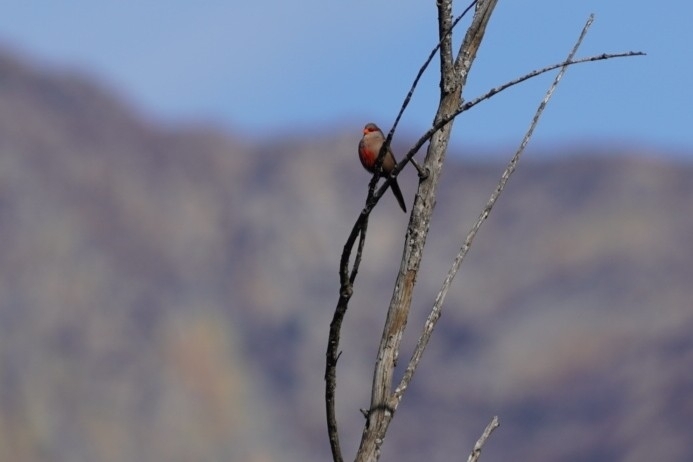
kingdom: Animalia
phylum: Chordata
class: Aves
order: Passeriformes
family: Estrildidae
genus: Estrilda
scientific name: Estrilda astrild
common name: Common waxbill
